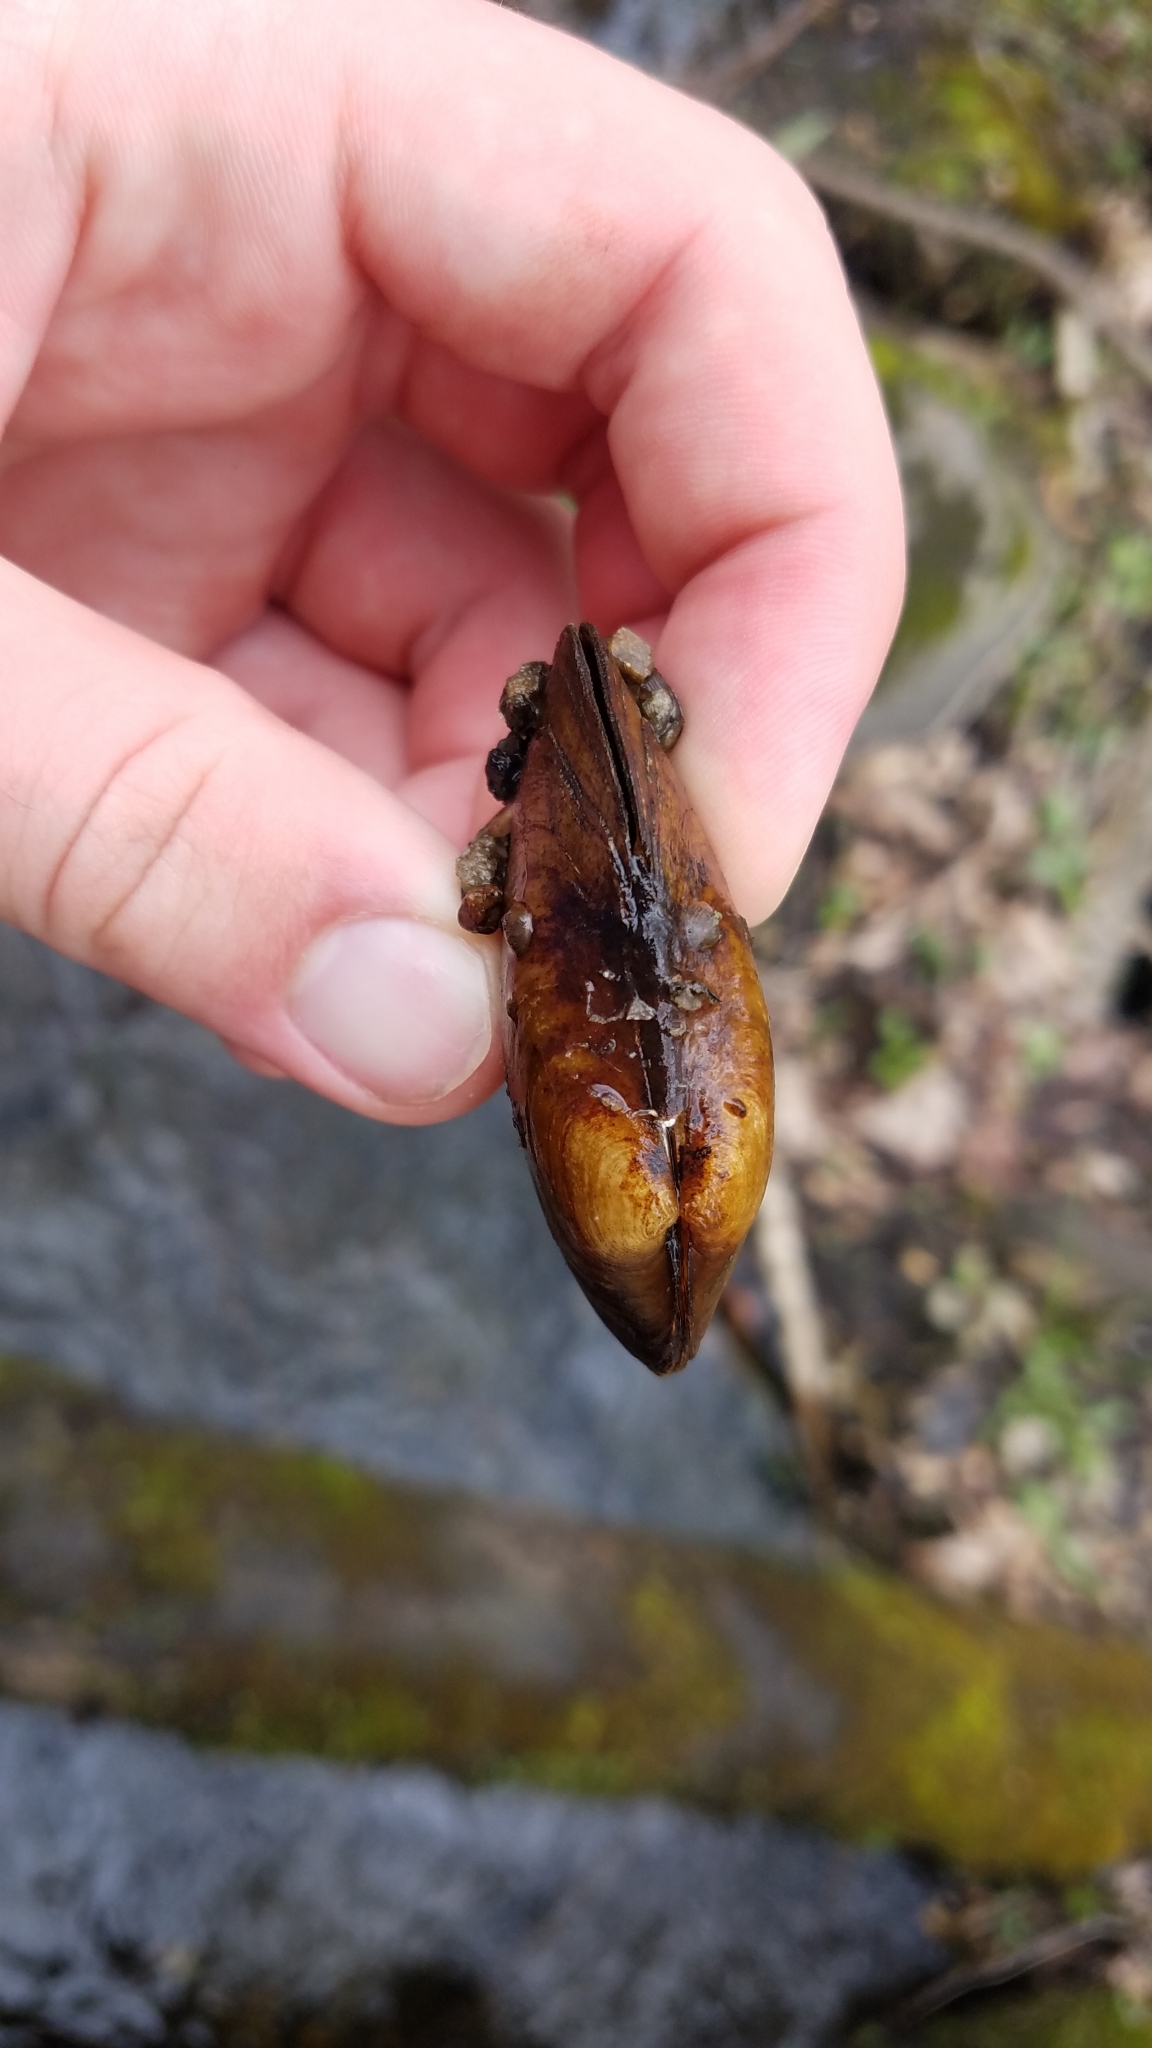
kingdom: Animalia
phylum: Mollusca
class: Bivalvia
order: Unionida
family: Unionidae
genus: Venustaconcha
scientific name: Venustaconcha ellipsiformis
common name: Ellipse
